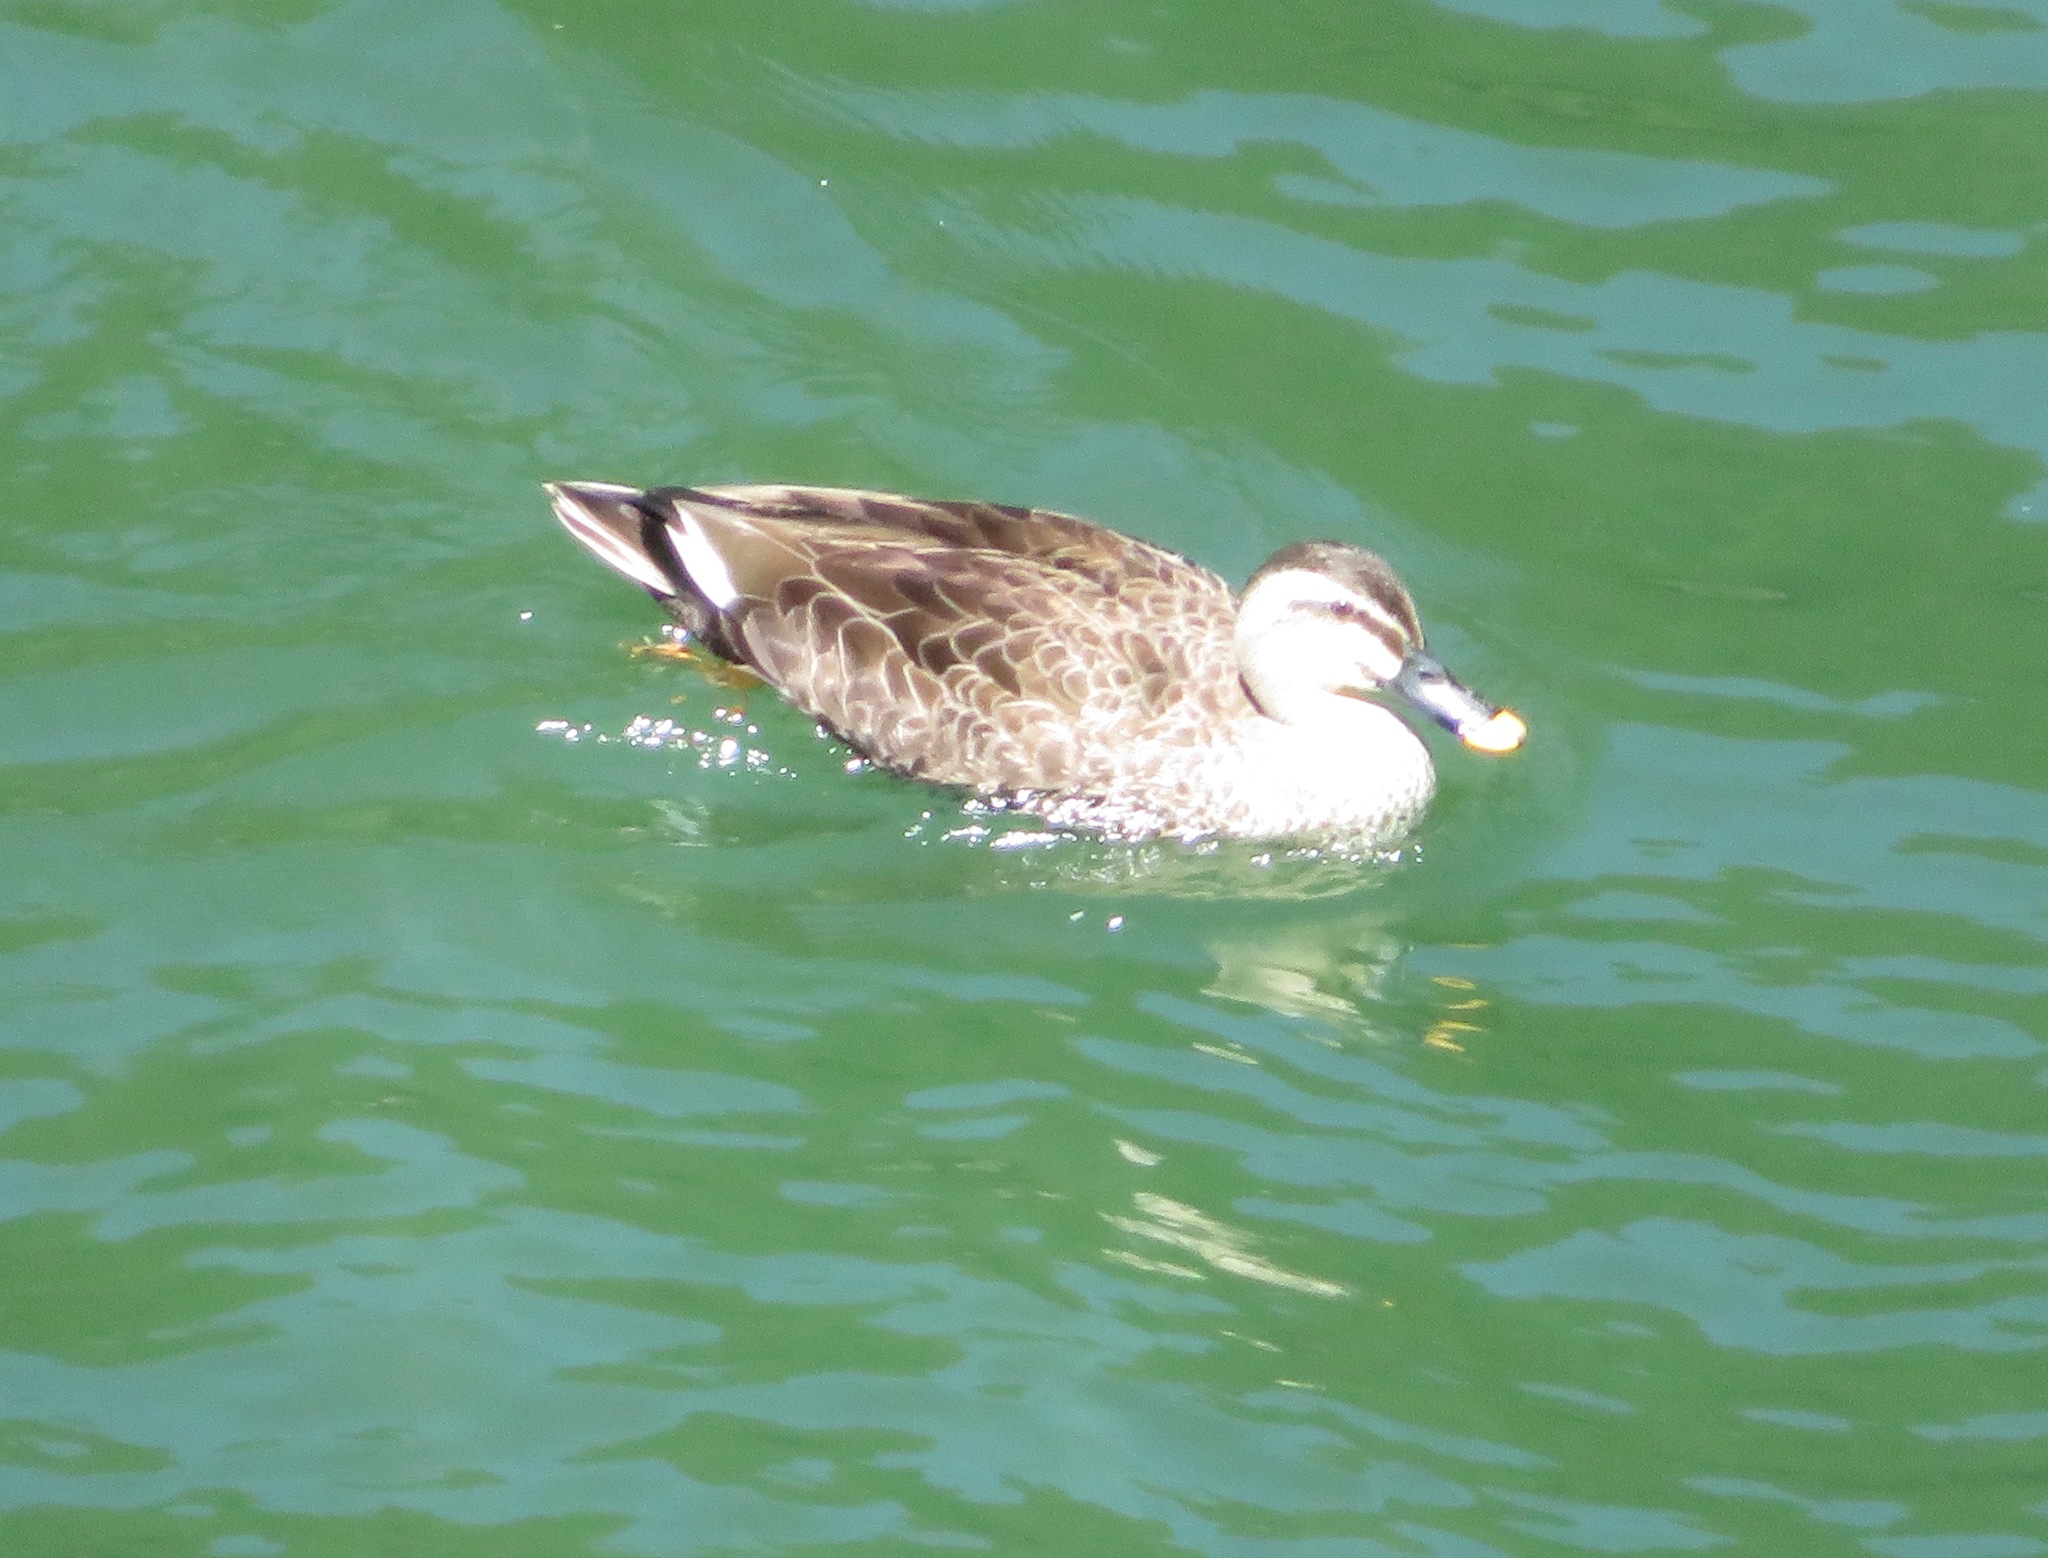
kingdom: Animalia
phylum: Chordata
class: Aves
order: Anseriformes
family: Anatidae
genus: Anas
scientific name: Anas zonorhyncha
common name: Eastern spot-billed duck
